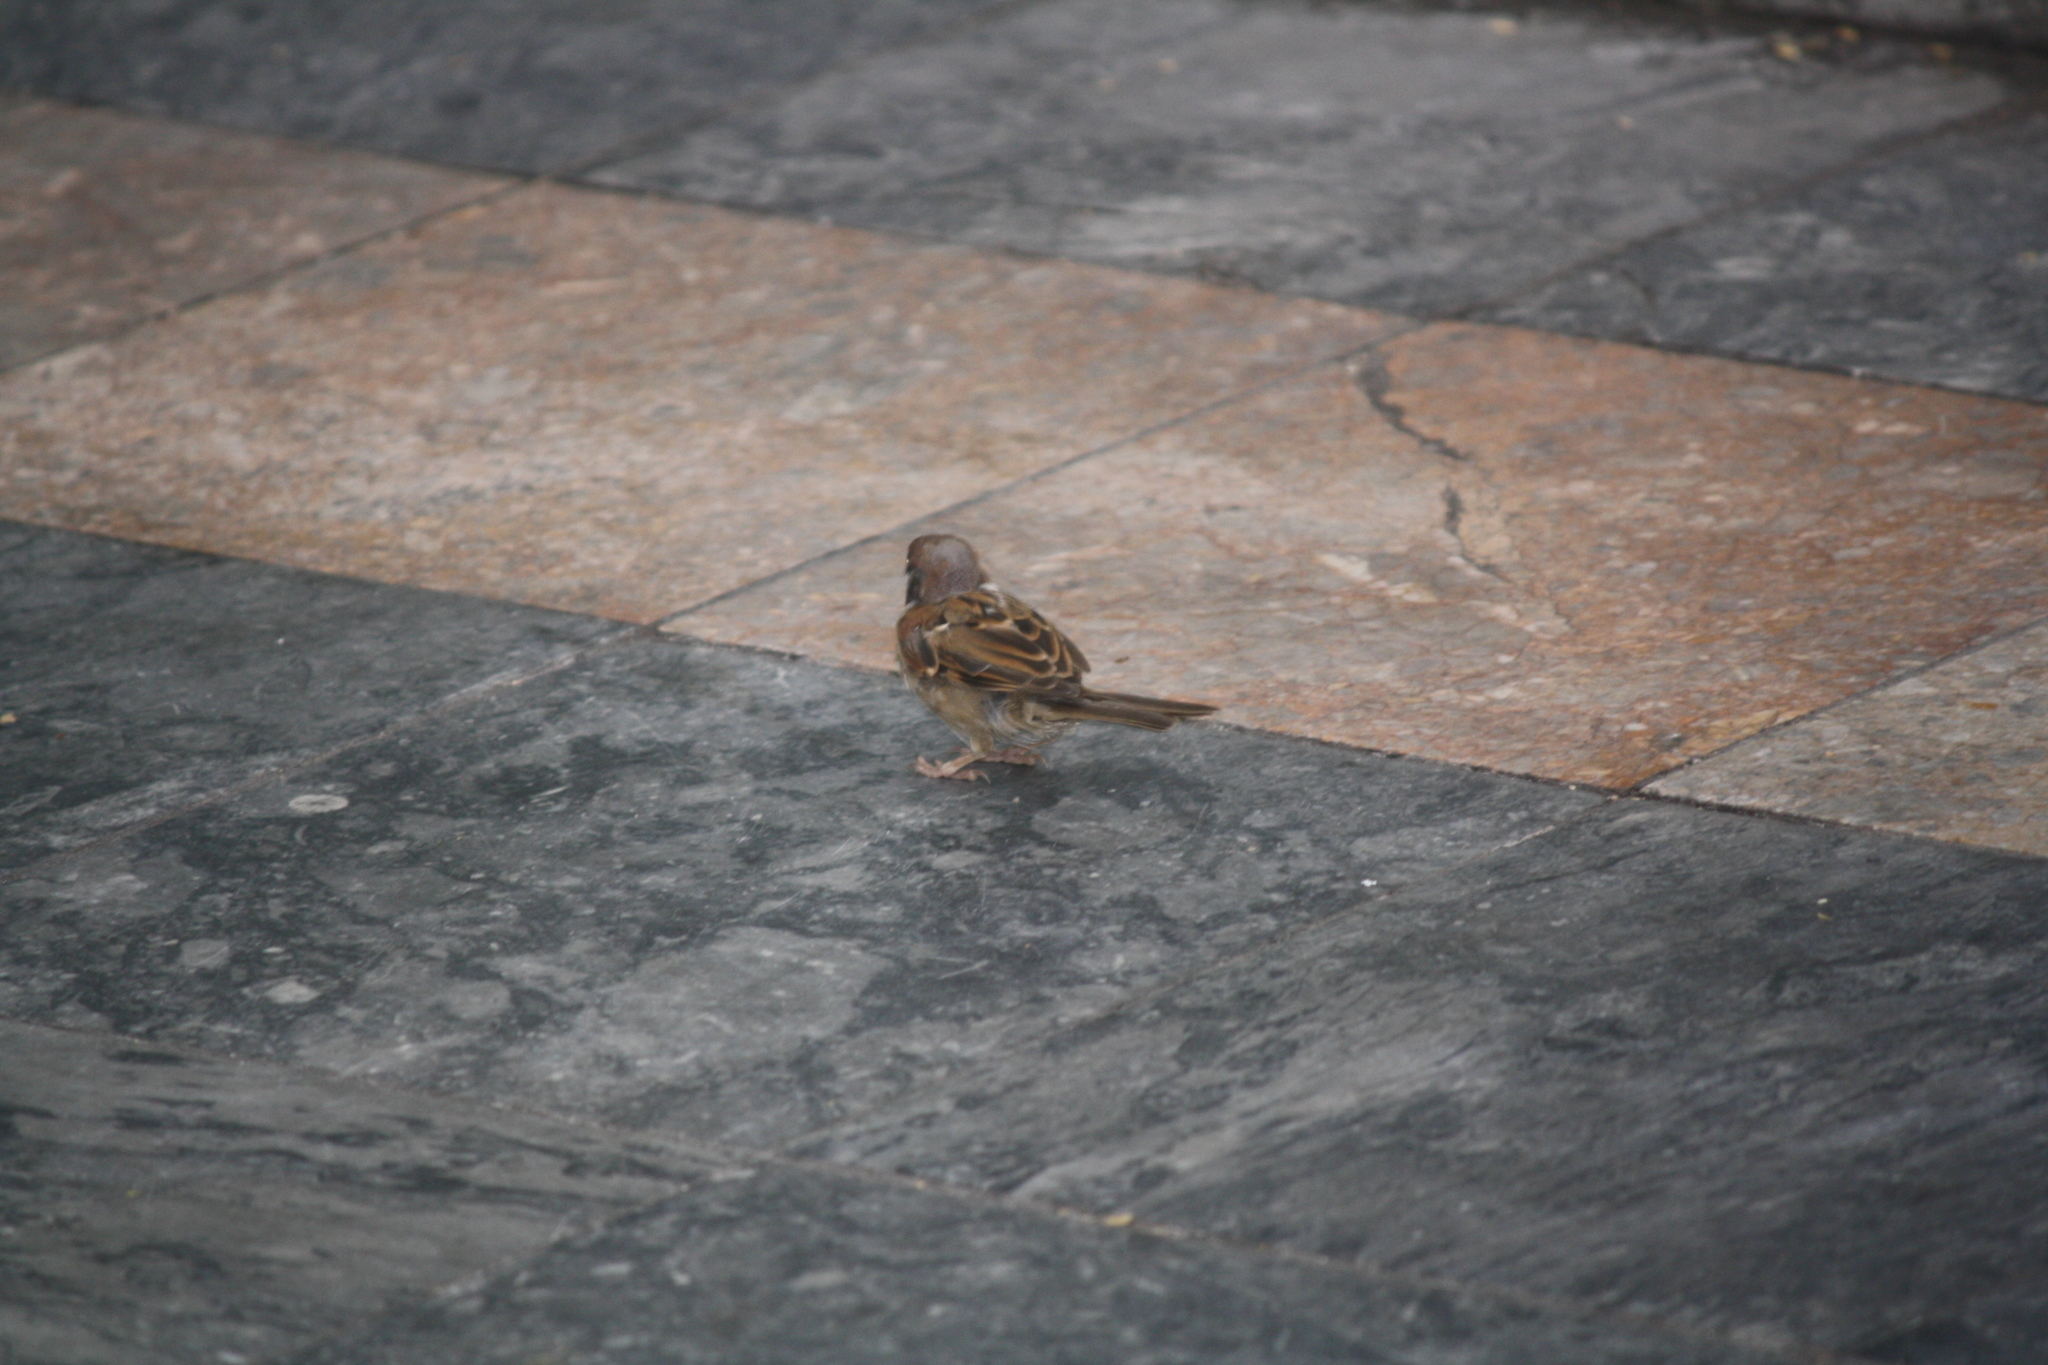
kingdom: Animalia
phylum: Chordata
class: Aves
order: Passeriformes
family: Passeridae
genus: Passer
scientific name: Passer montanus
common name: Eurasian tree sparrow
